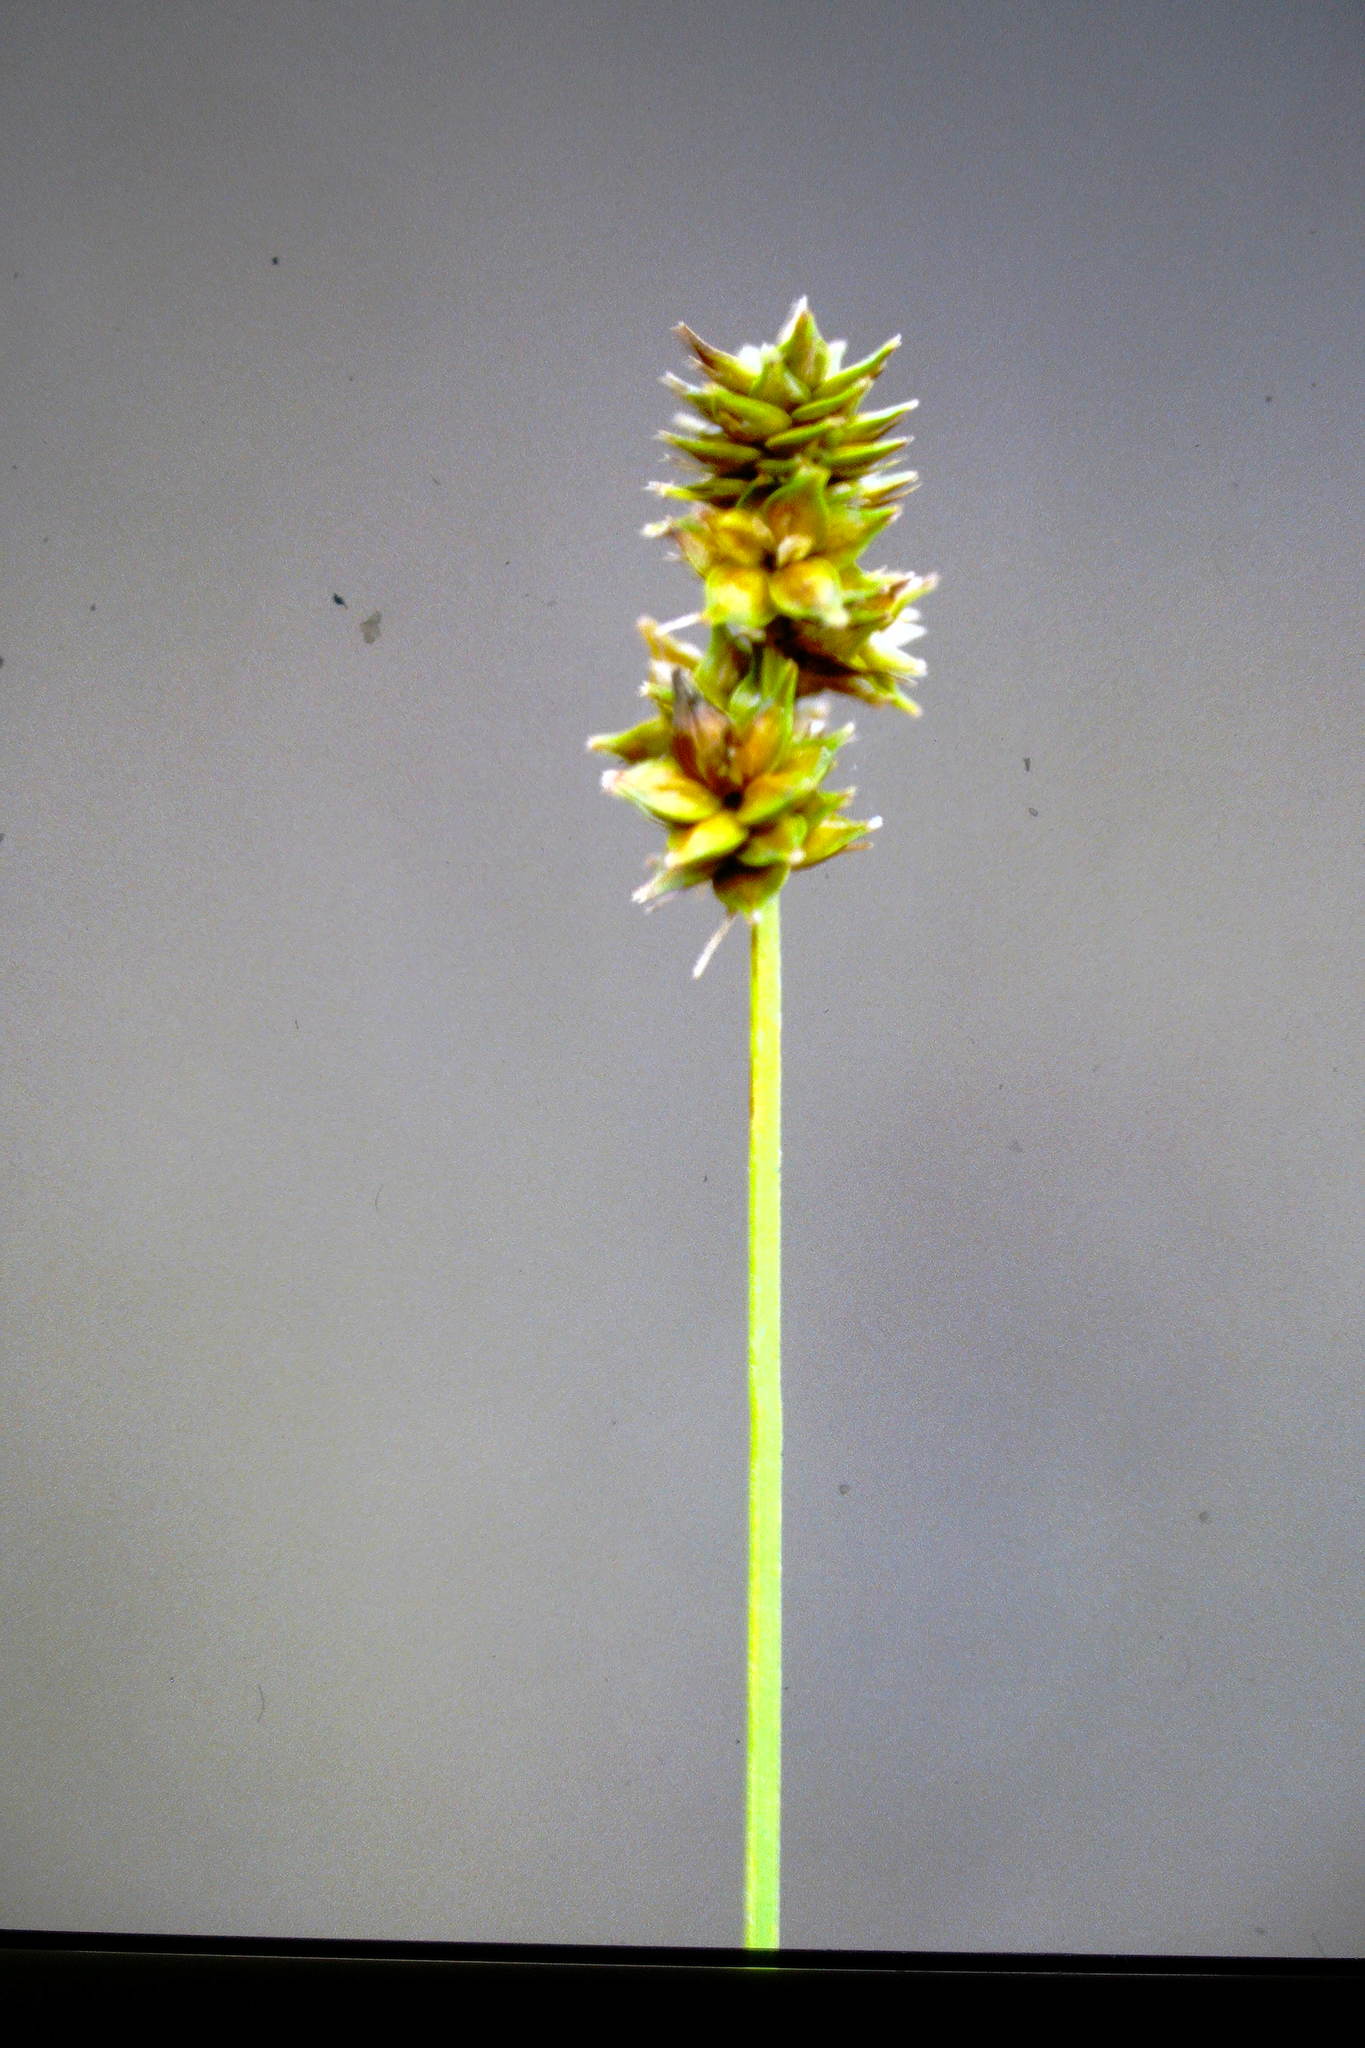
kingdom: Plantae
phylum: Tracheophyta
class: Liliopsida
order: Poales
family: Cyperaceae
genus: Carex
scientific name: Carex muehlenbergii
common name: Muhlenberg's bracted sedge
